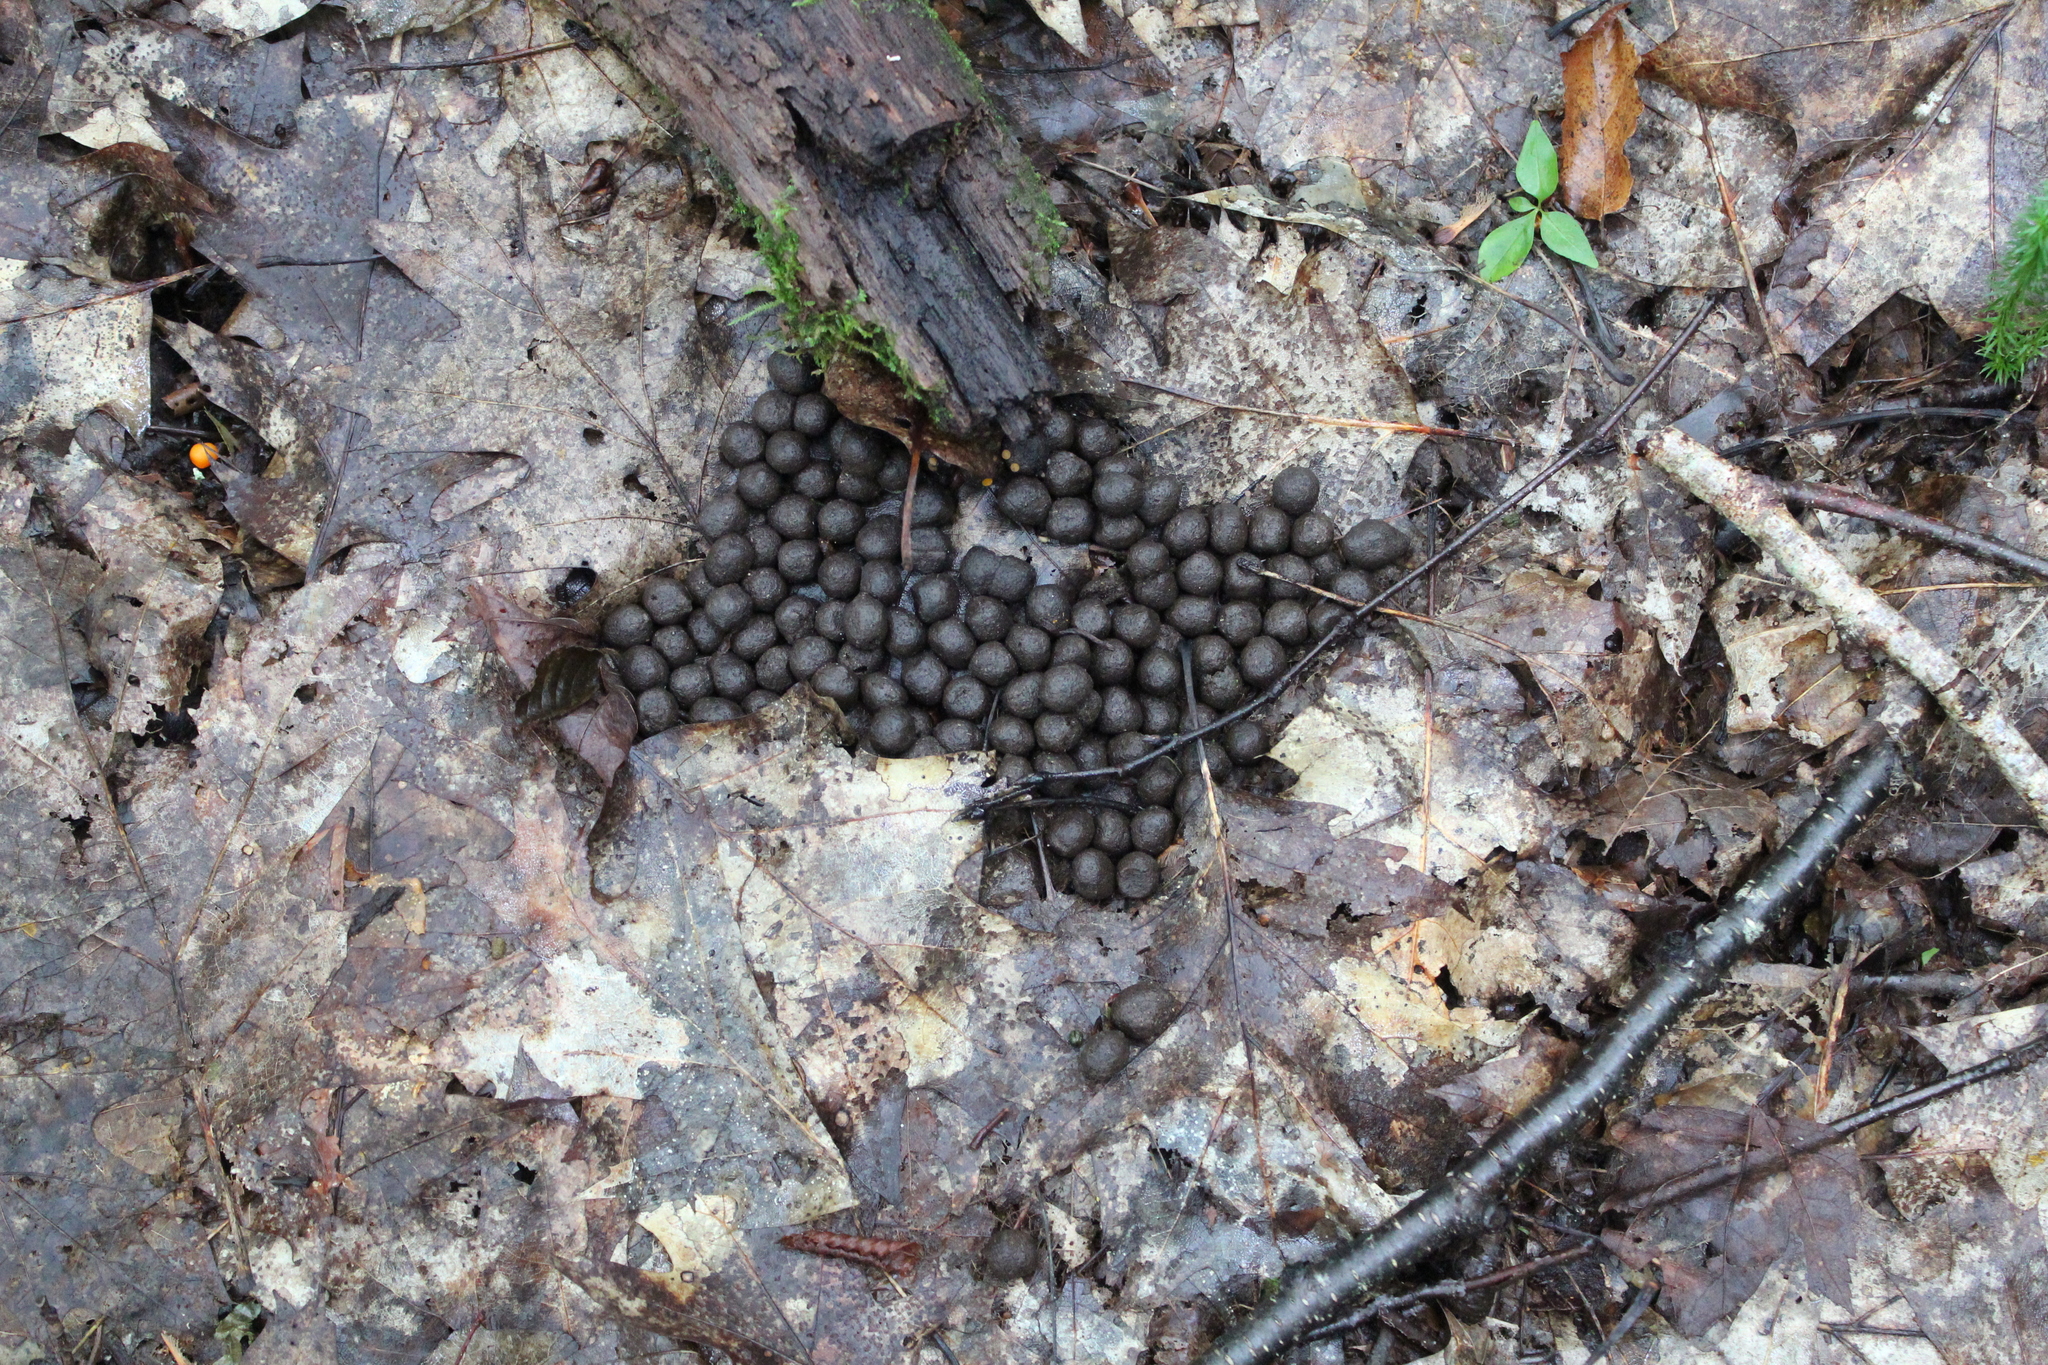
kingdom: Animalia
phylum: Chordata
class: Mammalia
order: Artiodactyla
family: Cervidae
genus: Odocoileus
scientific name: Odocoileus virginianus
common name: White-tailed deer
